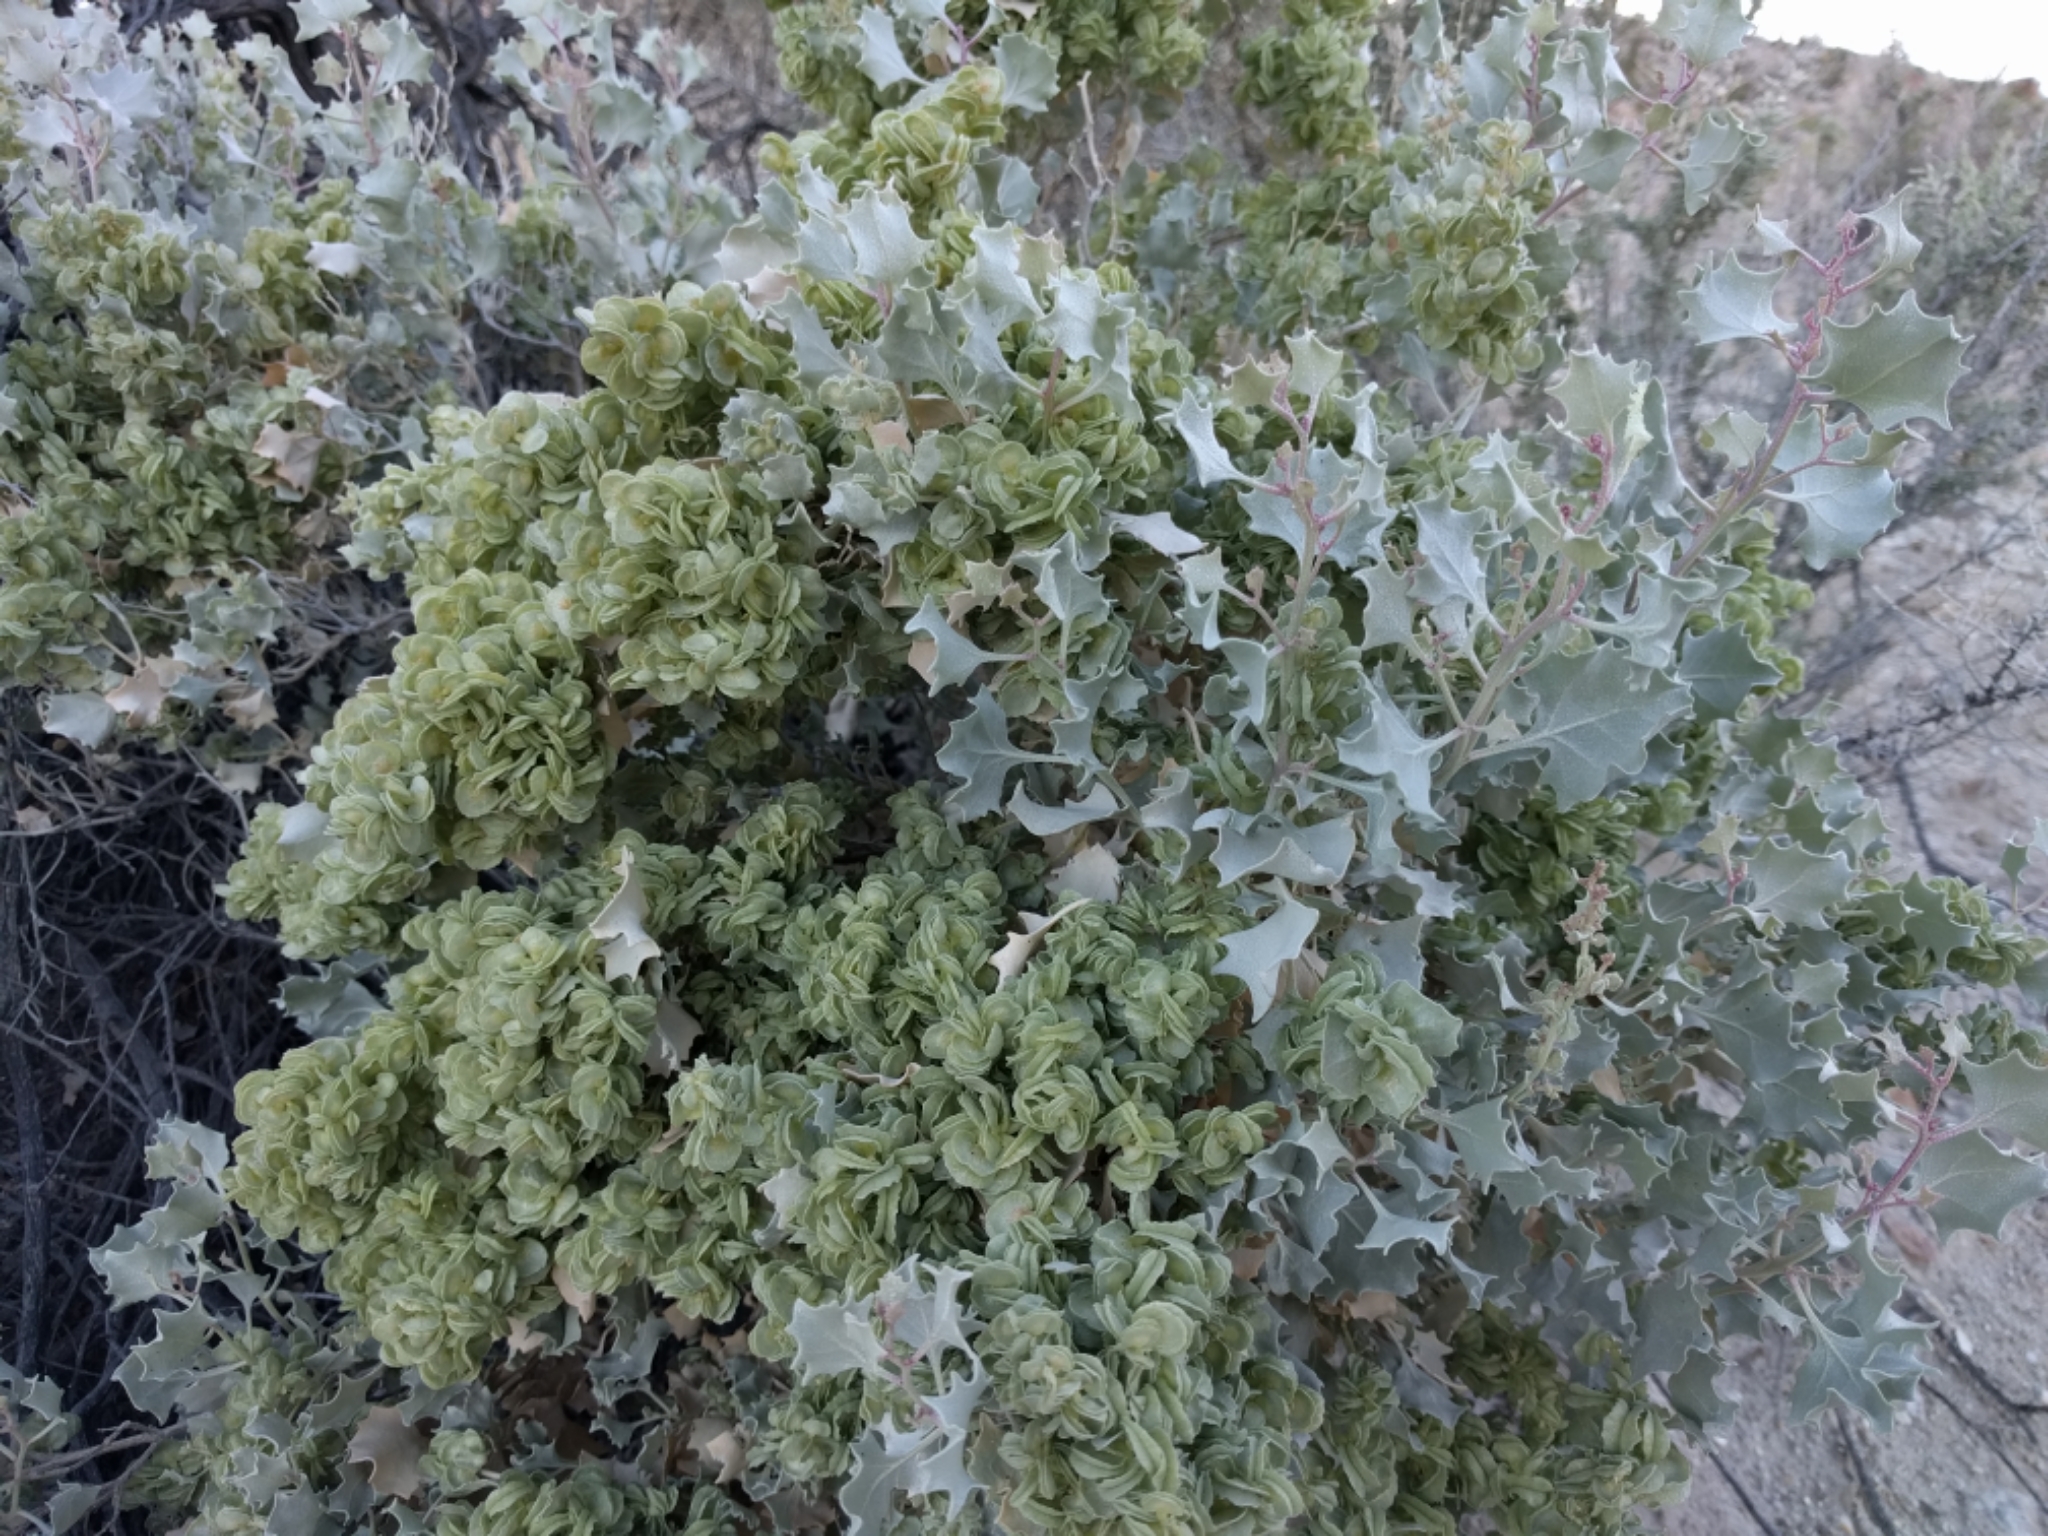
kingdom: Plantae
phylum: Tracheophyta
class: Magnoliopsida
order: Caryophyllales
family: Amaranthaceae
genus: Atriplex
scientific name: Atriplex hymenelytra
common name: Desert-holly
